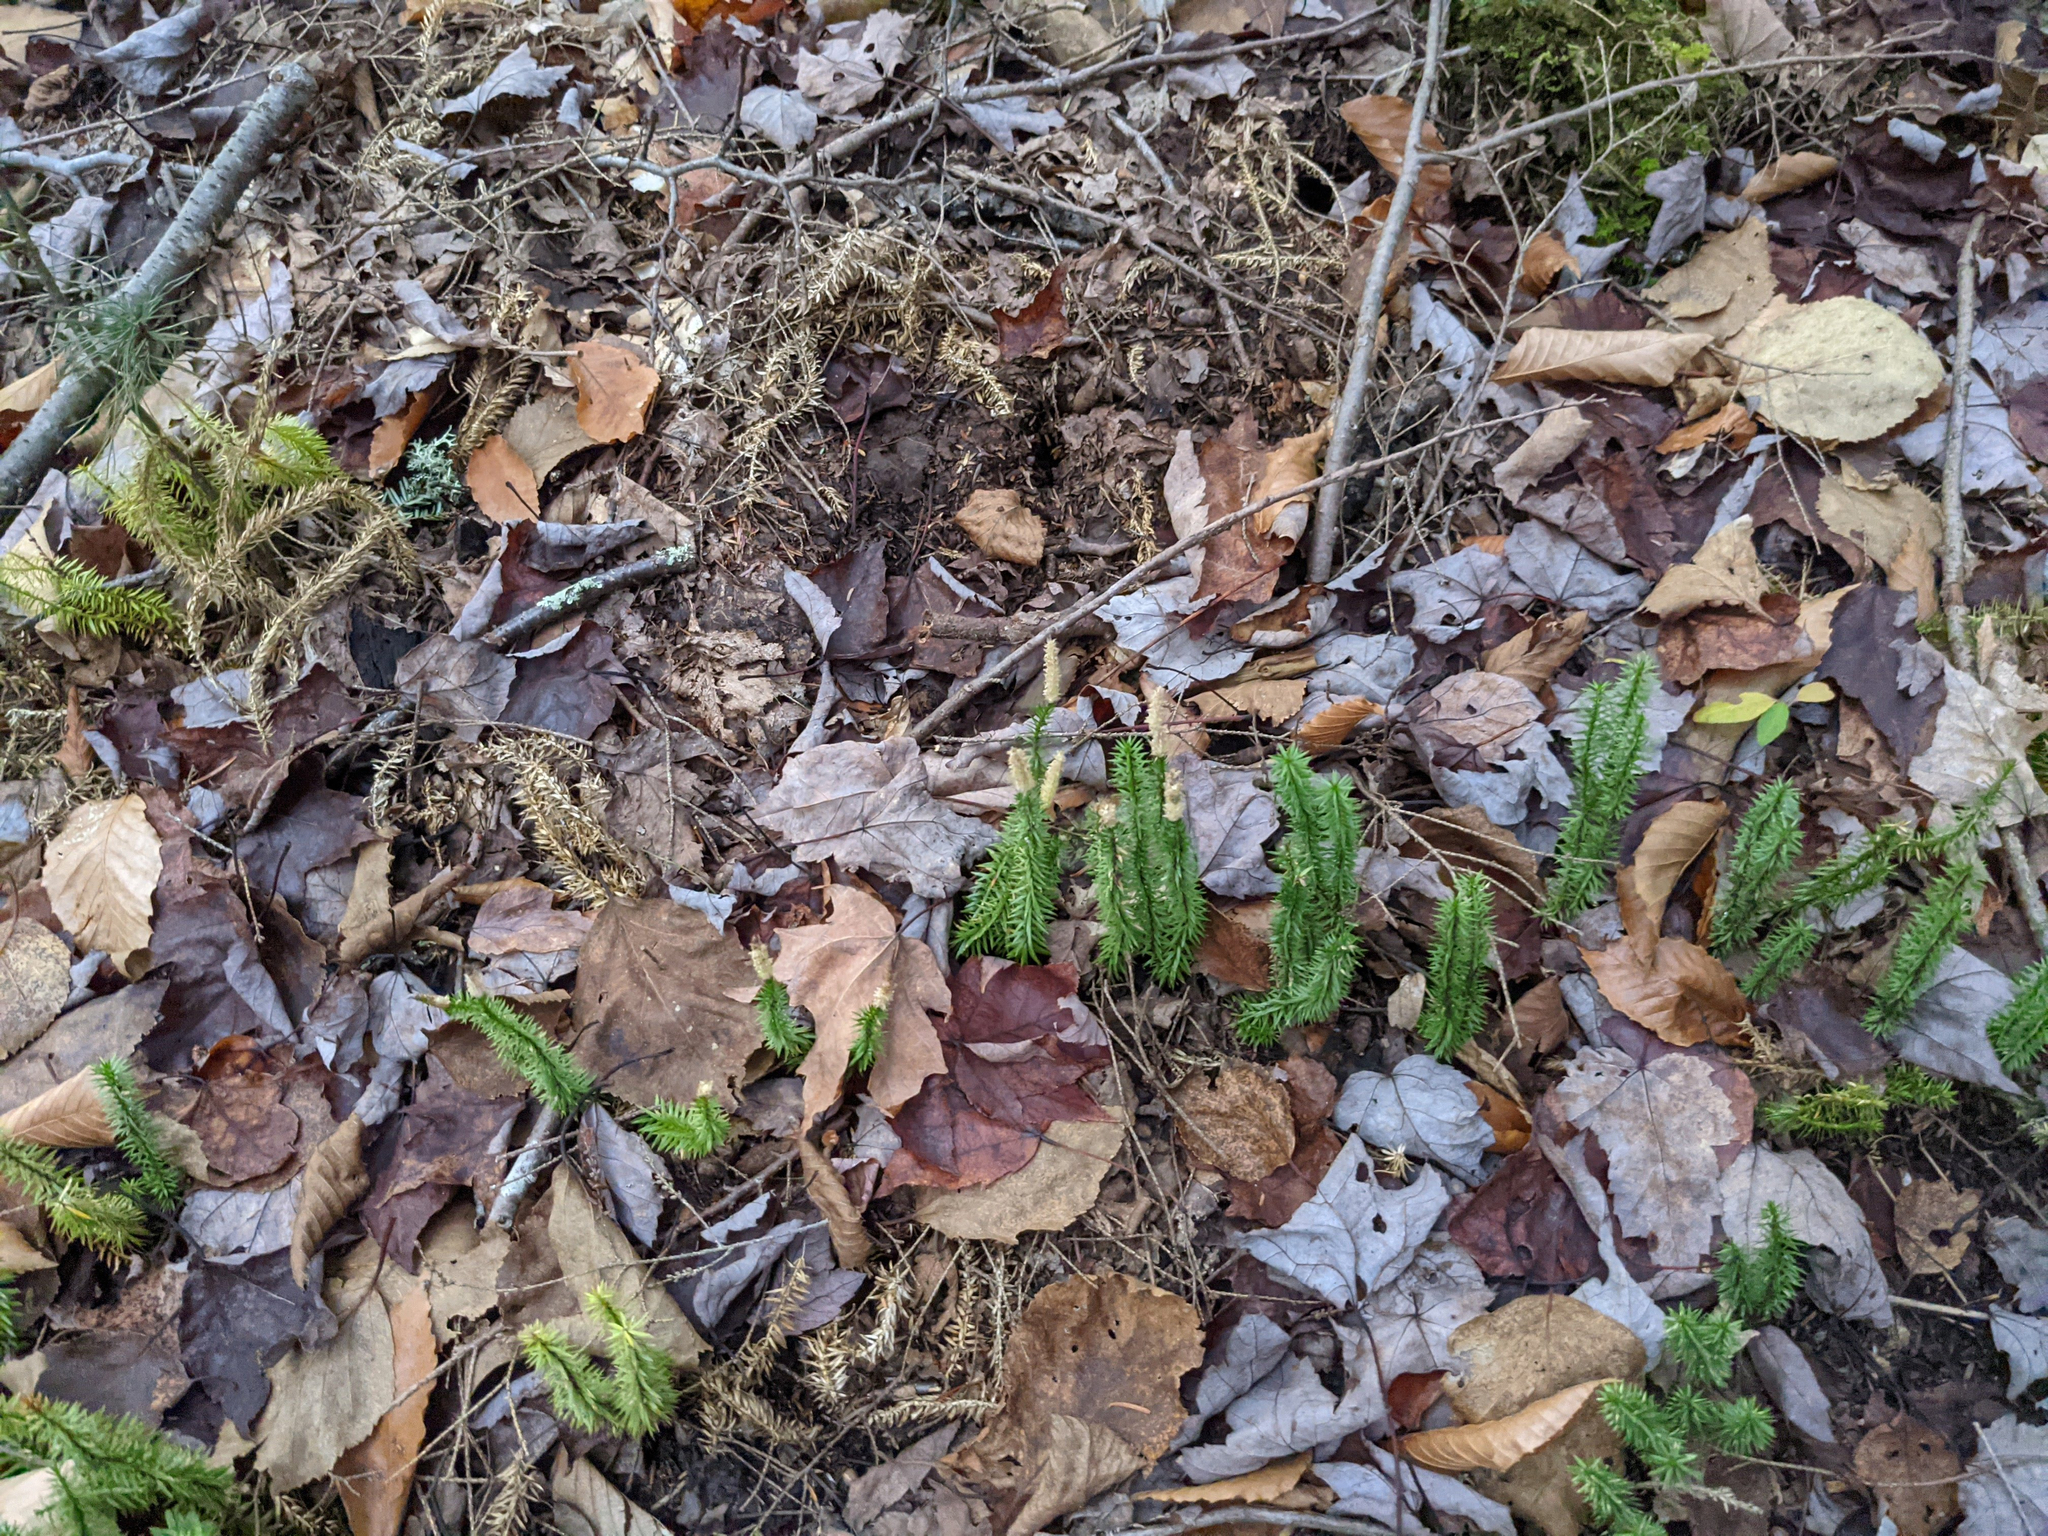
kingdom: Plantae
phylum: Tracheophyta
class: Lycopodiopsida
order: Lycopodiales
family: Lycopodiaceae
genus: Spinulum
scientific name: Spinulum annotinum
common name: Interrupted club-moss
